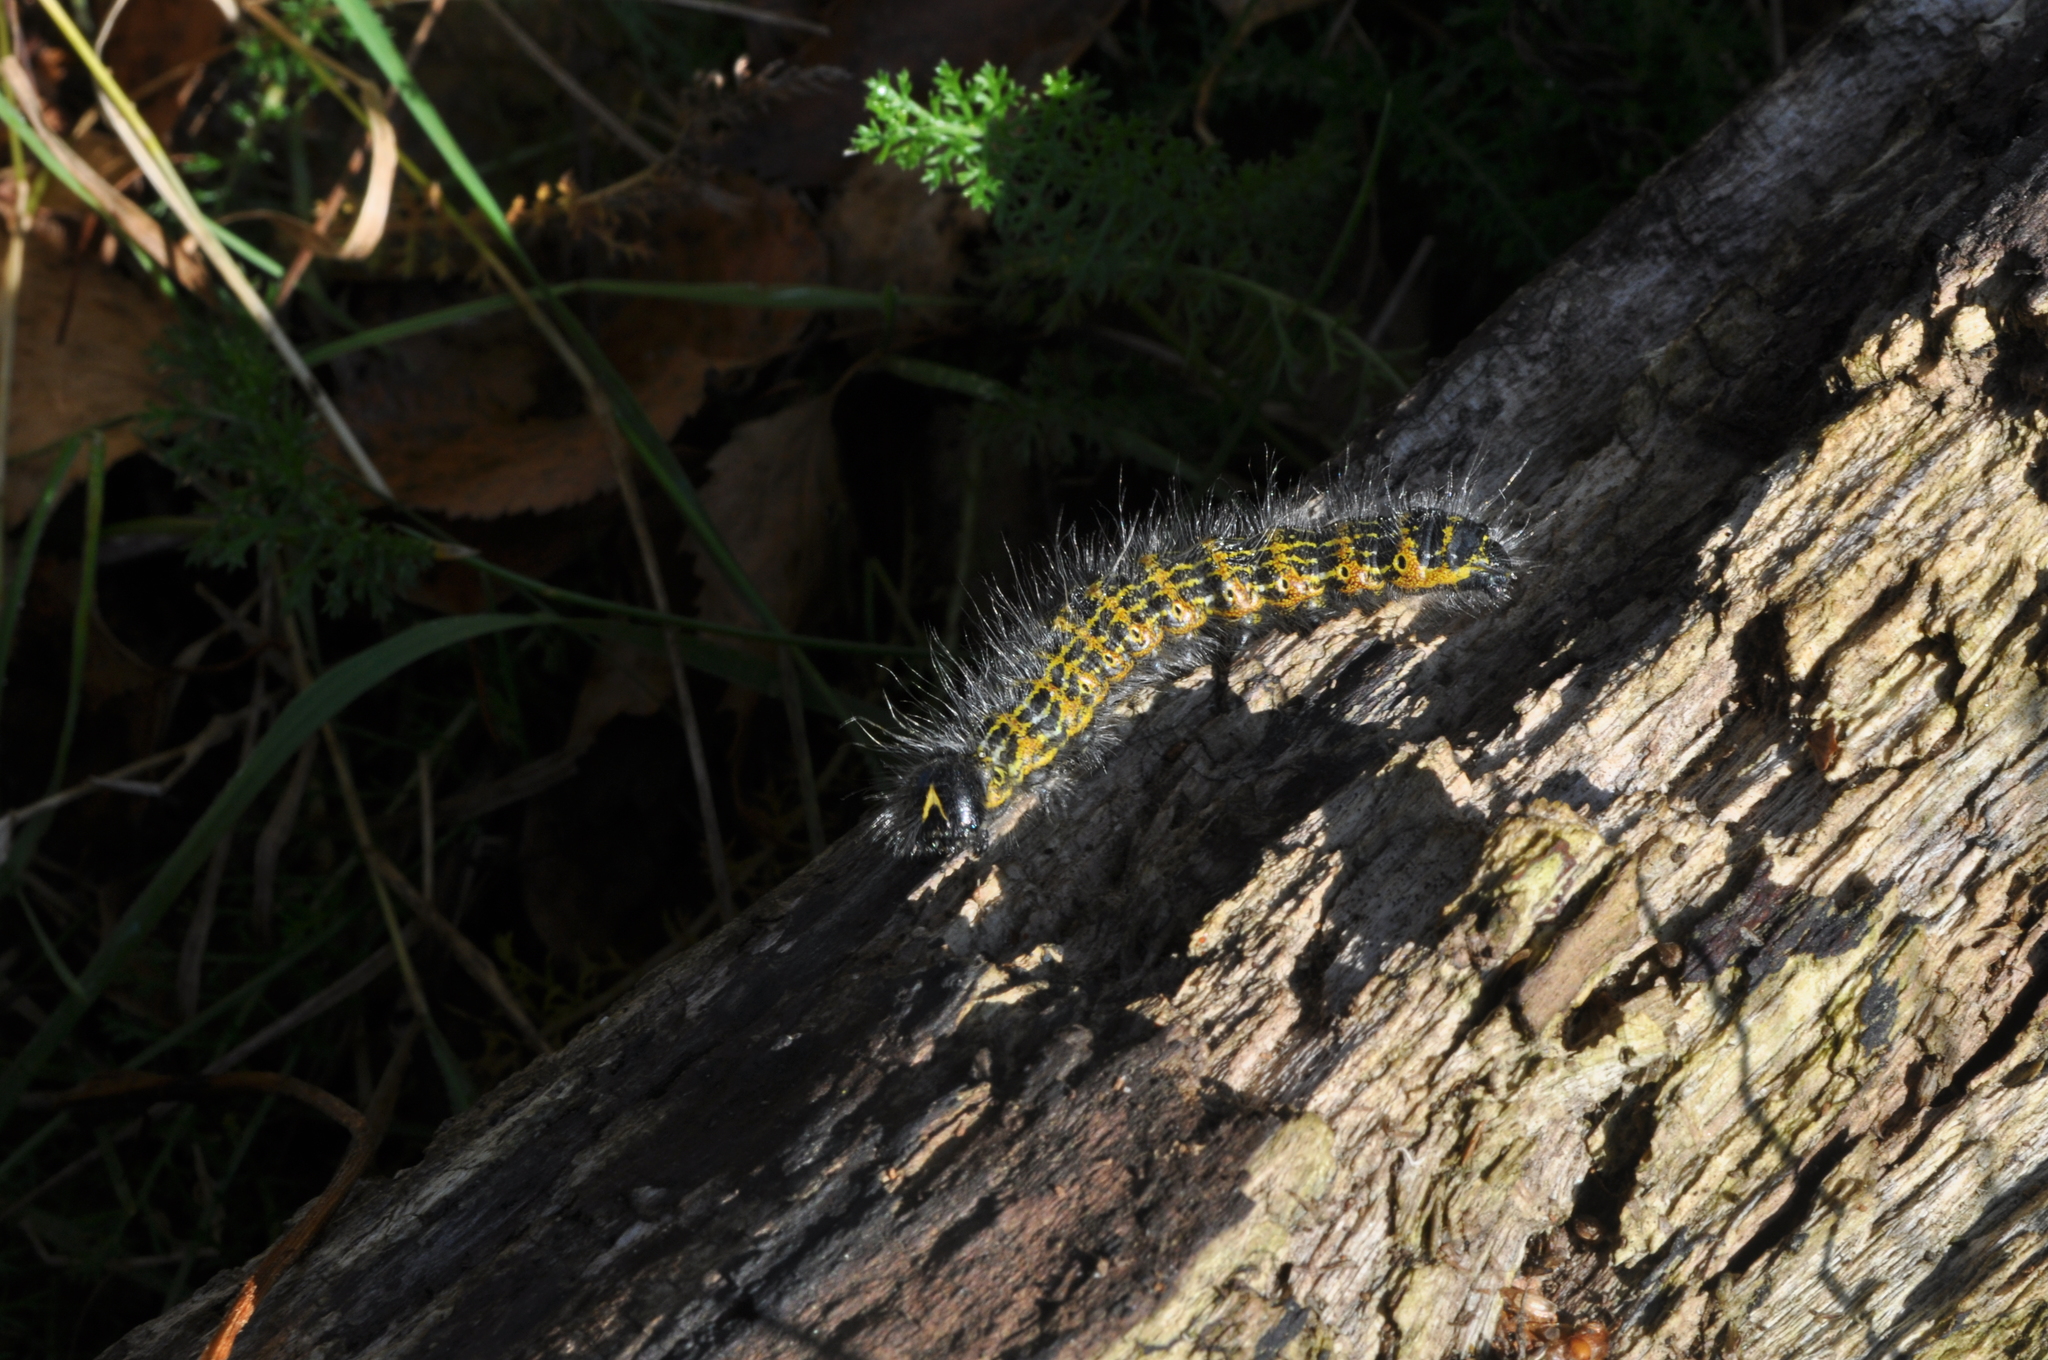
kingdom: Animalia
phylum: Arthropoda
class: Insecta
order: Lepidoptera
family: Notodontidae
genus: Phalera
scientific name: Phalera bucephala
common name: Buff-tip
